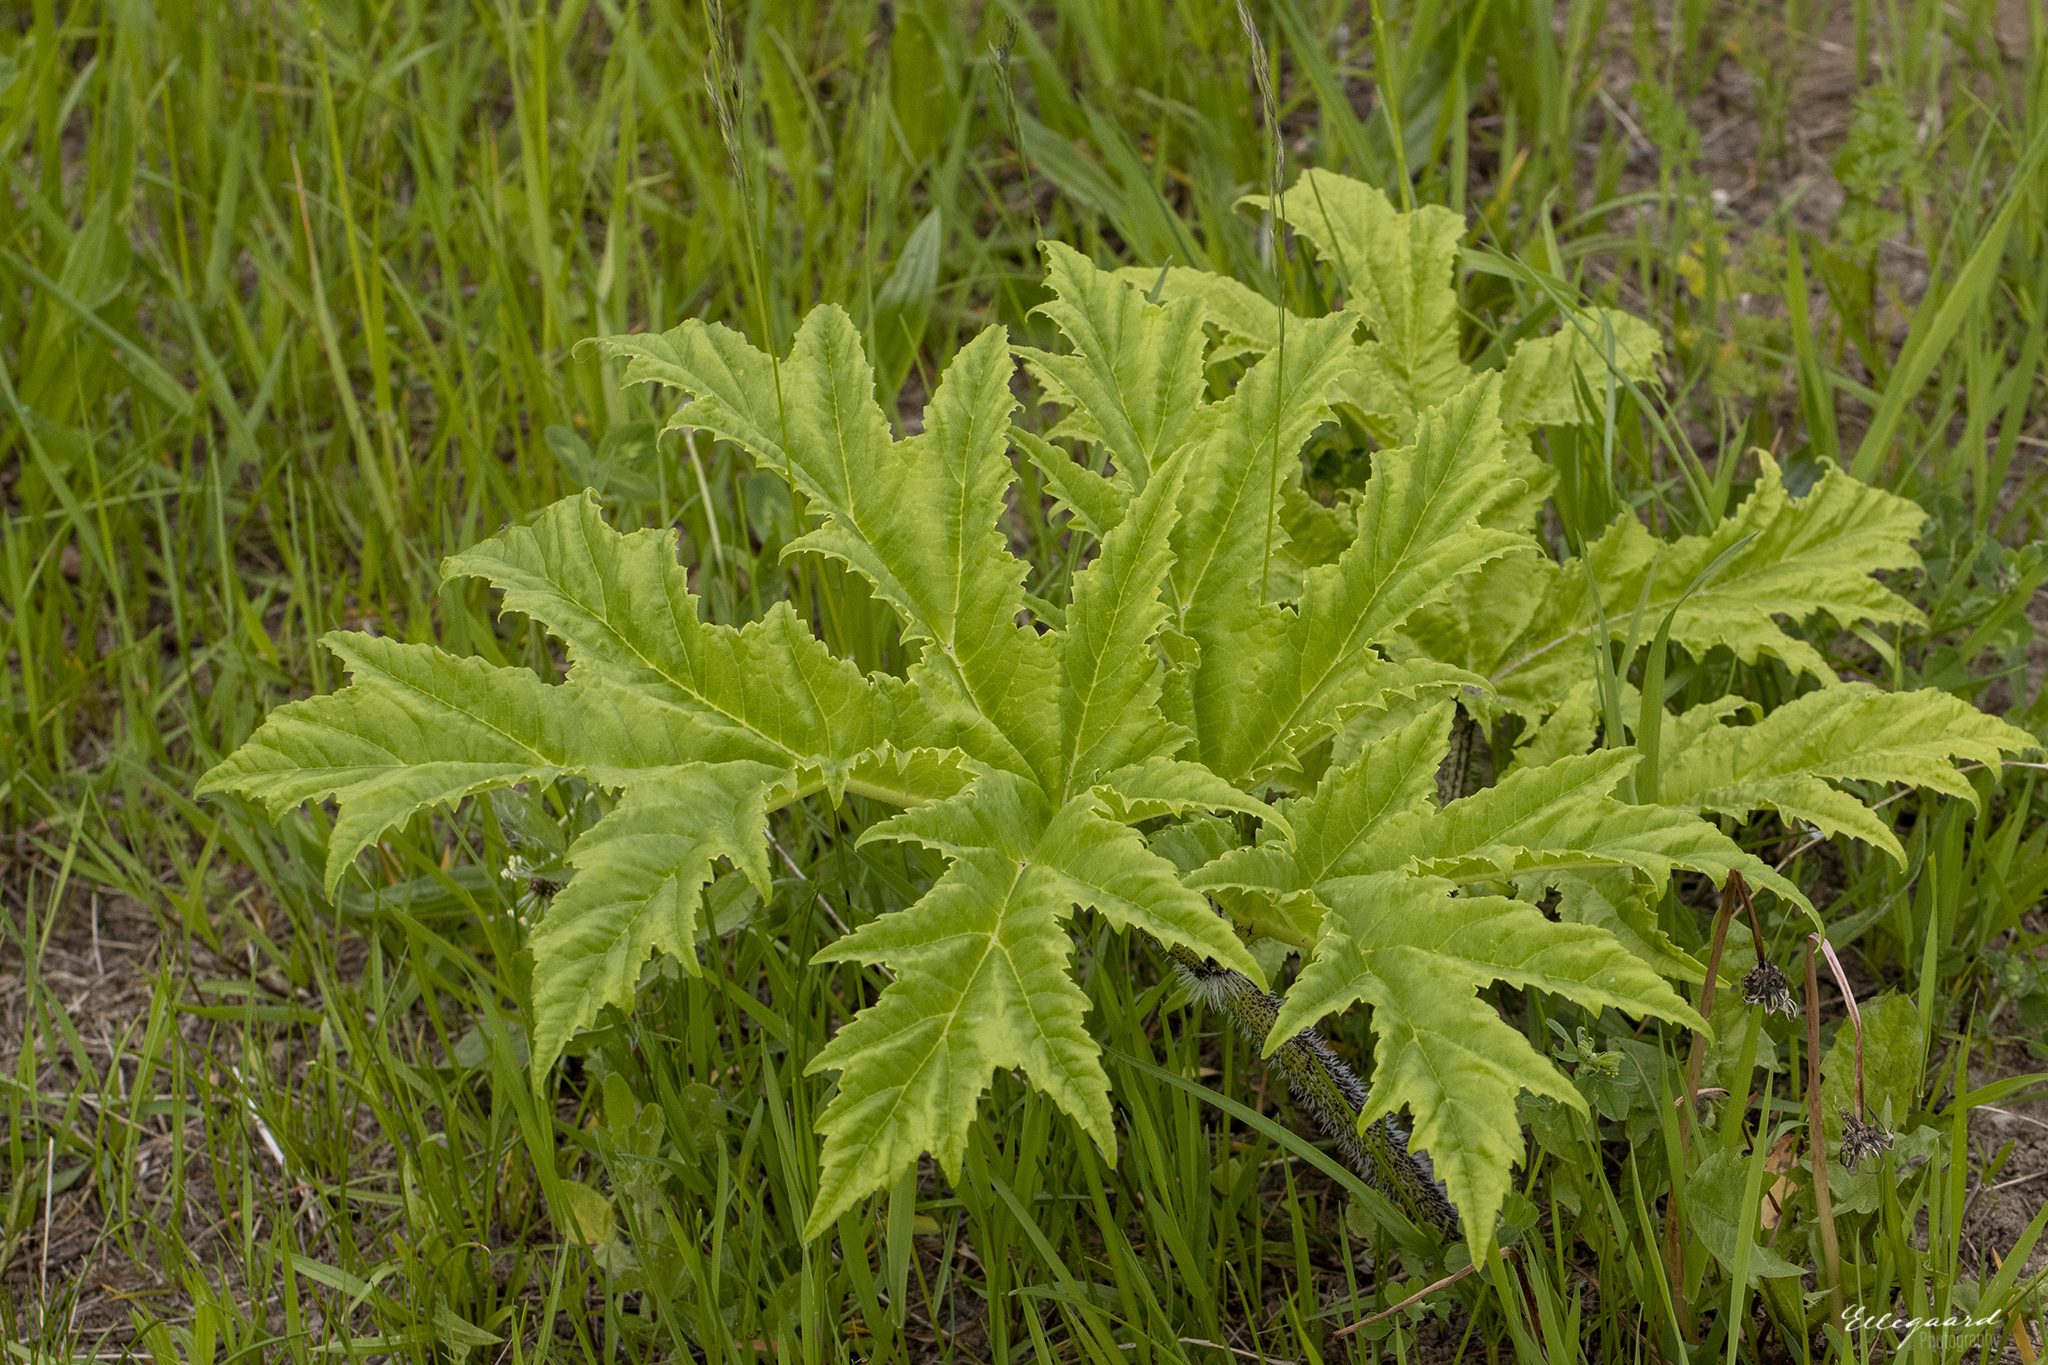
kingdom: Plantae
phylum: Tracheophyta
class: Magnoliopsida
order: Apiales
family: Apiaceae
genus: Heracleum
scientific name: Heracleum mantegazzianum
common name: Giant hogweed
